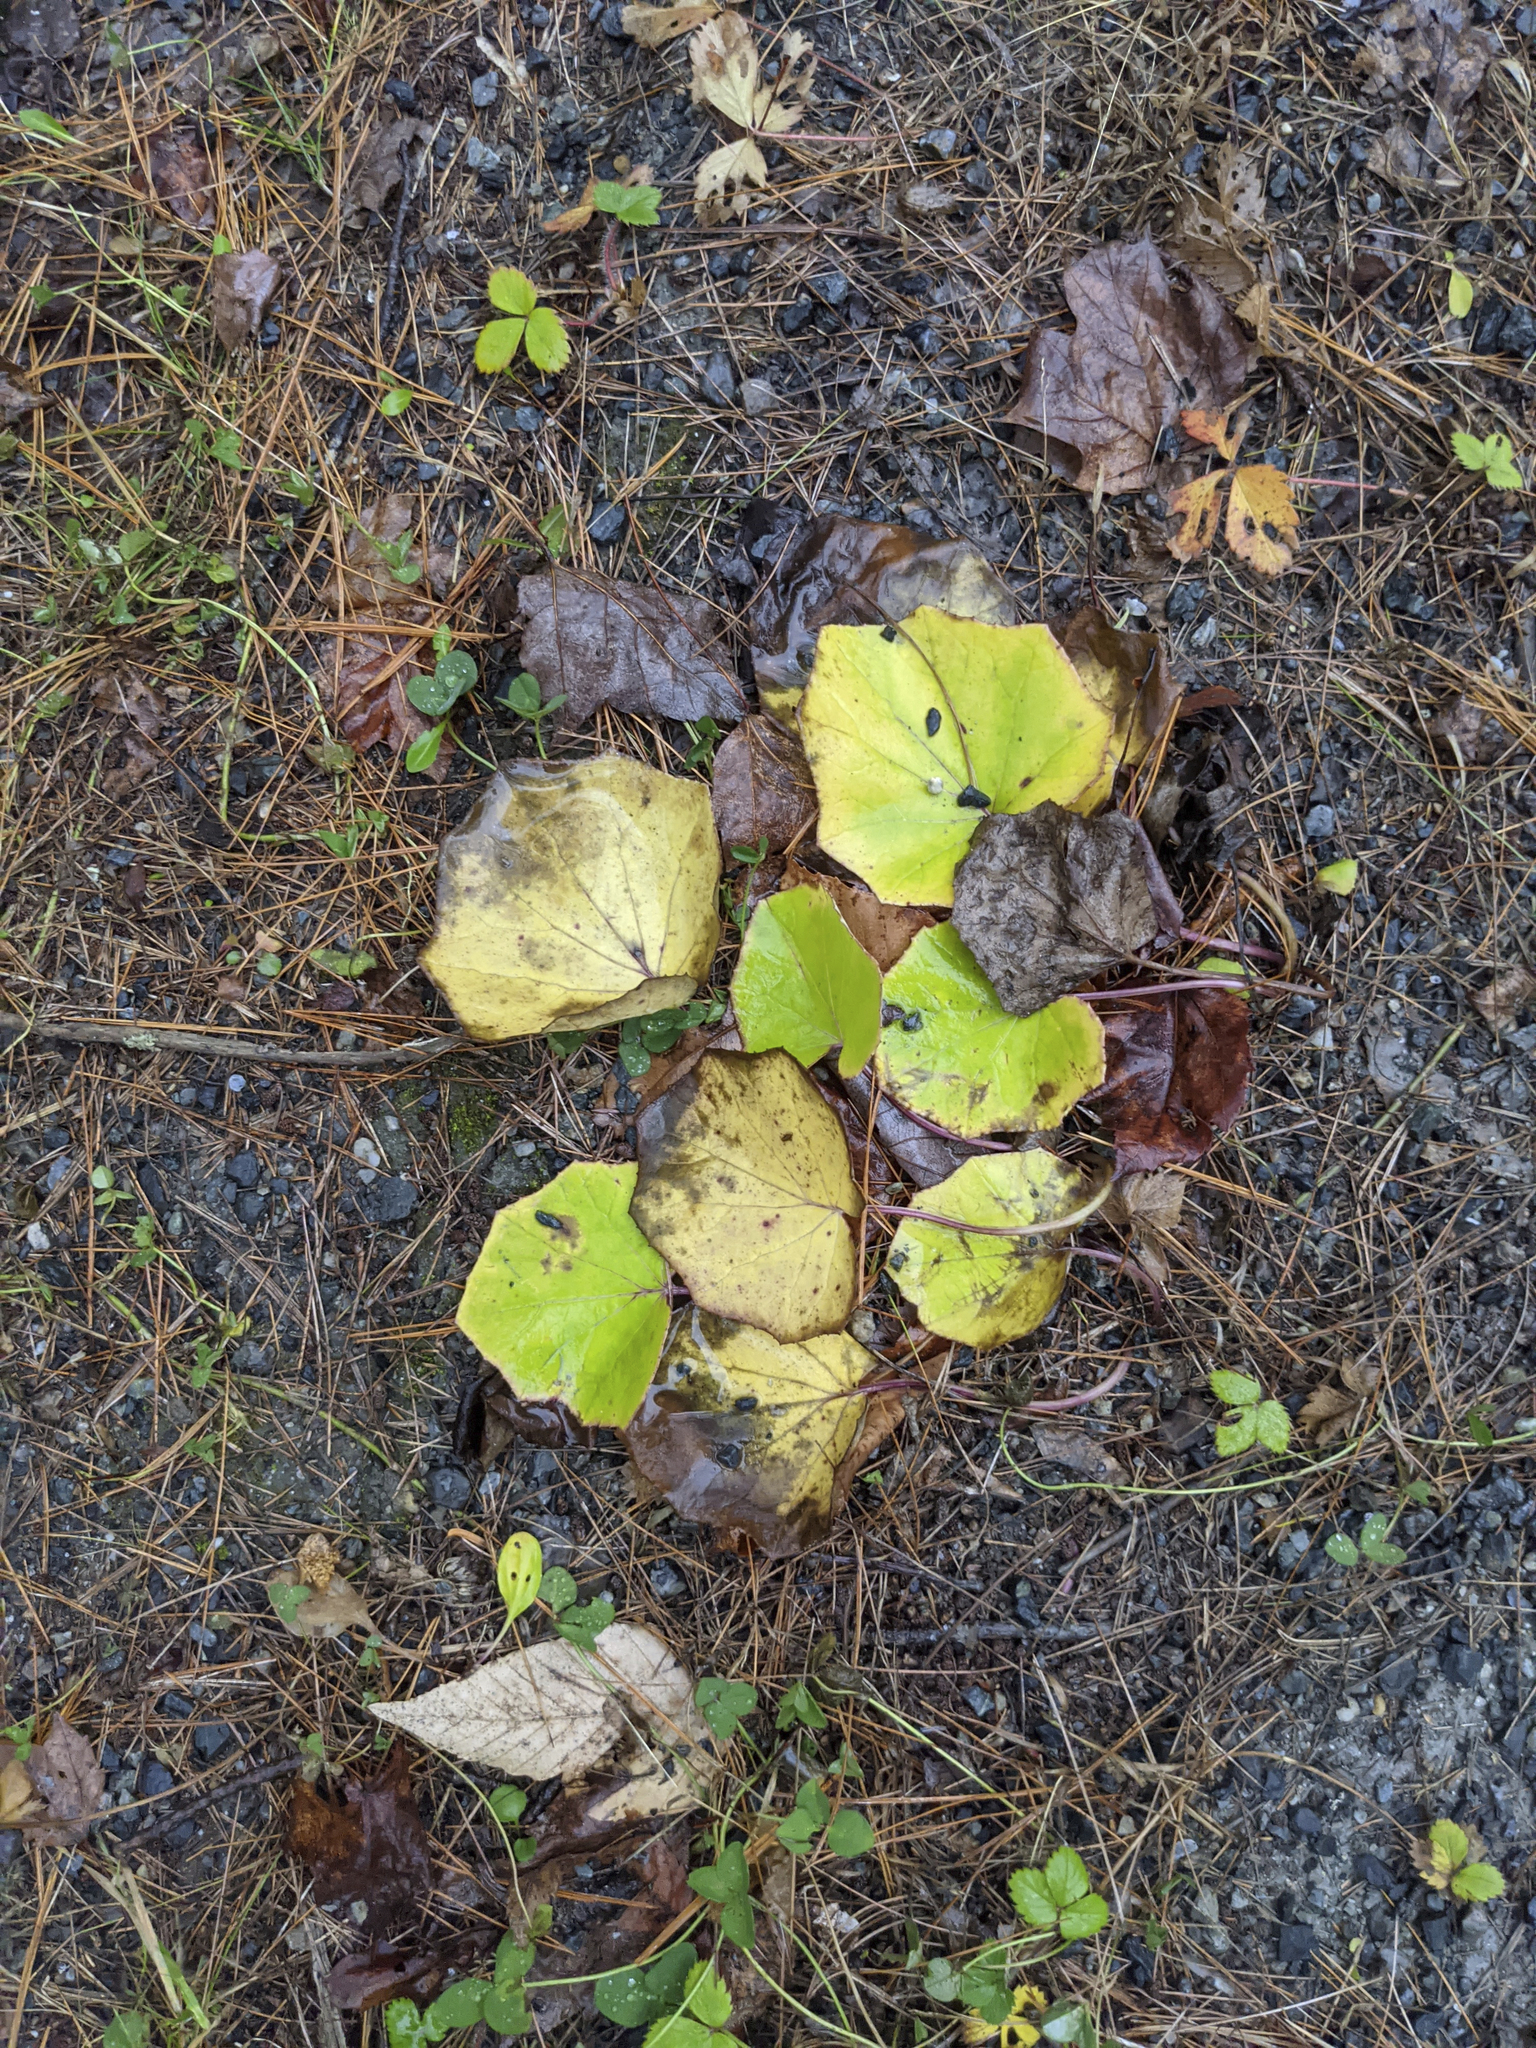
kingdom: Plantae
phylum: Tracheophyta
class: Magnoliopsida
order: Asterales
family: Asteraceae
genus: Tussilago
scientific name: Tussilago farfara
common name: Coltsfoot
